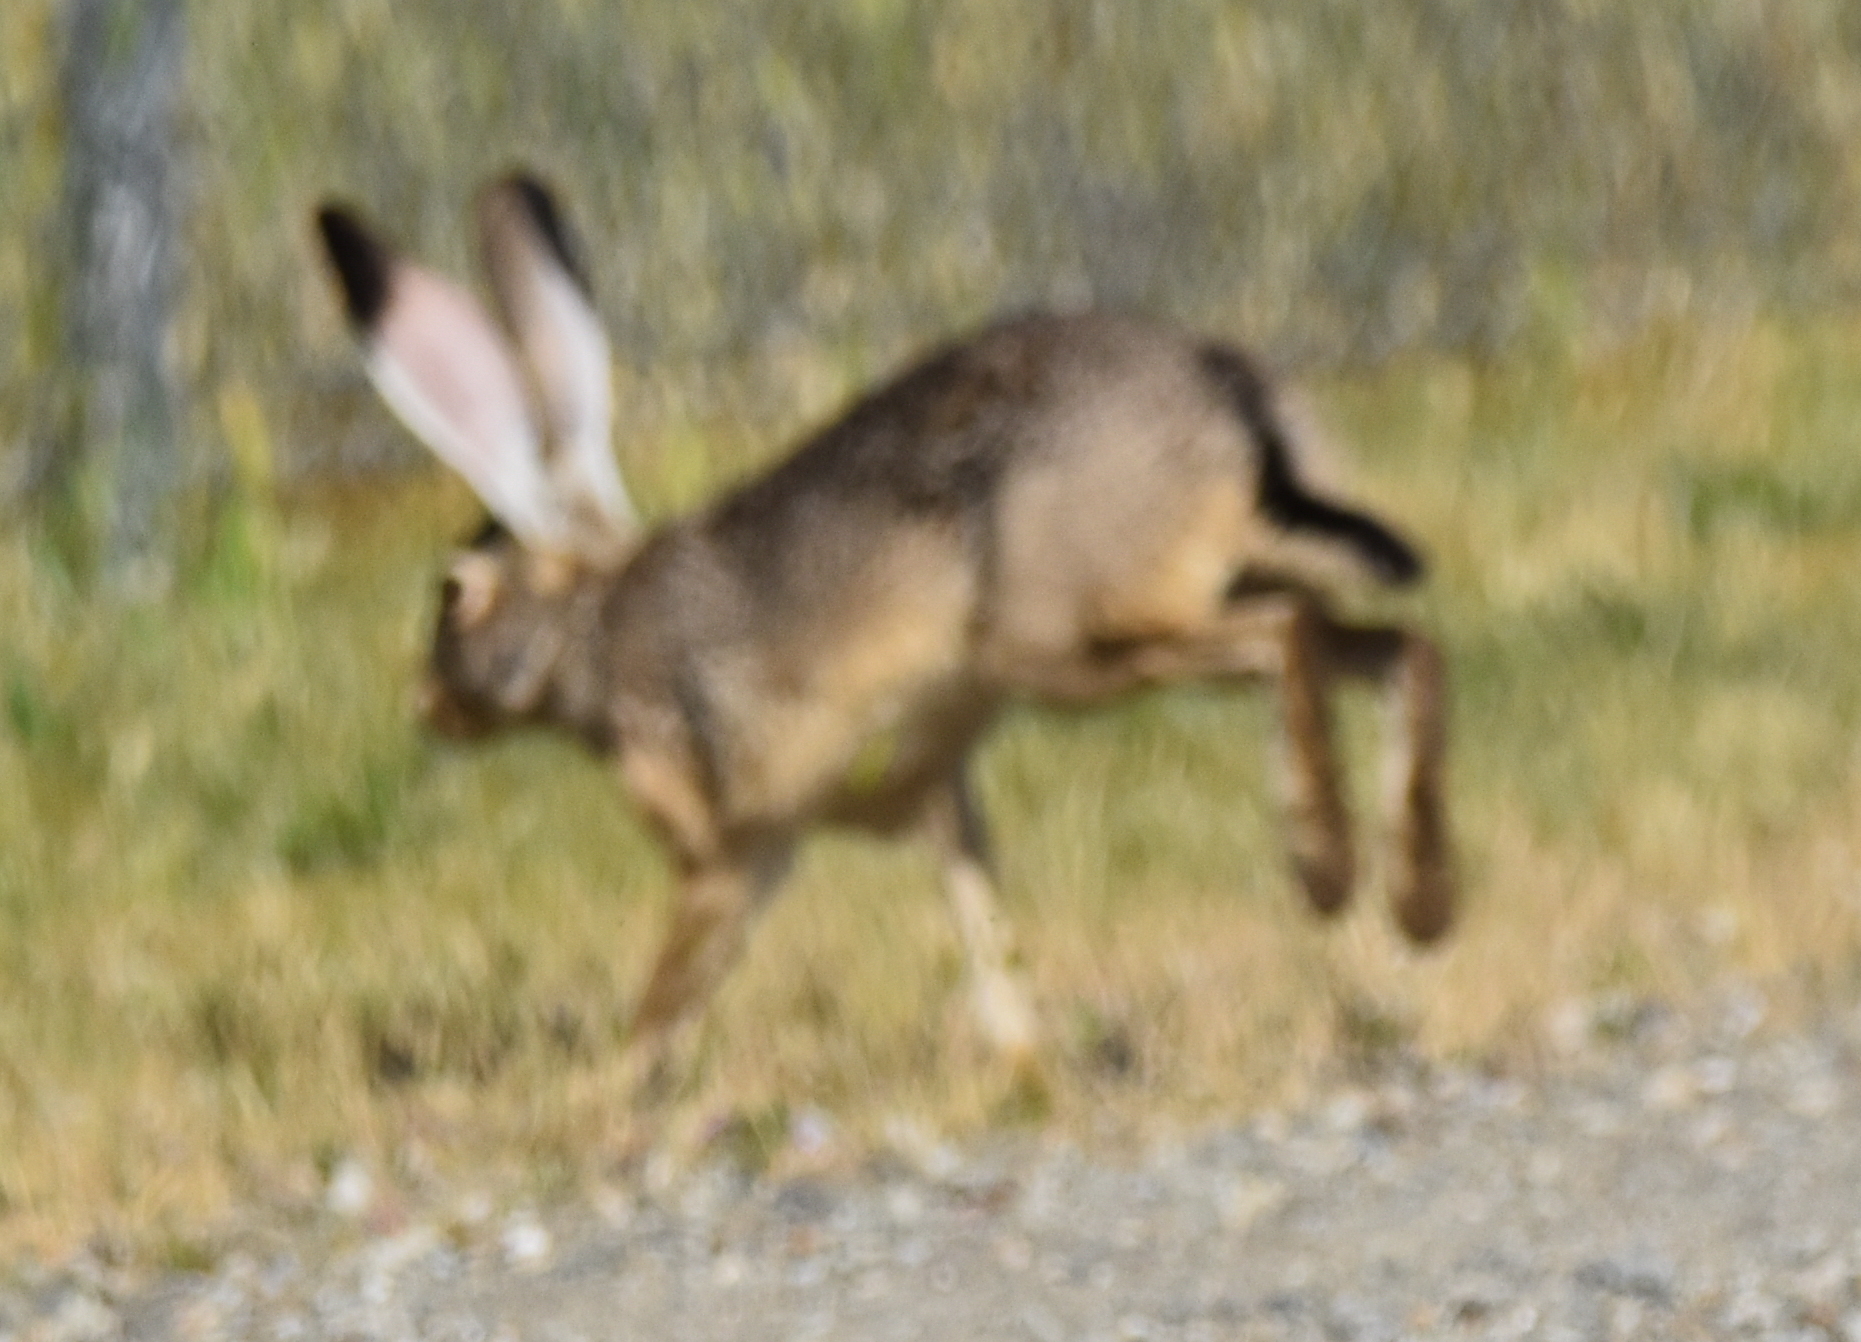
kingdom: Animalia
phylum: Chordata
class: Mammalia
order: Lagomorpha
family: Leporidae
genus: Lepus
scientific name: Lepus californicus
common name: Black-tailed jackrabbit
